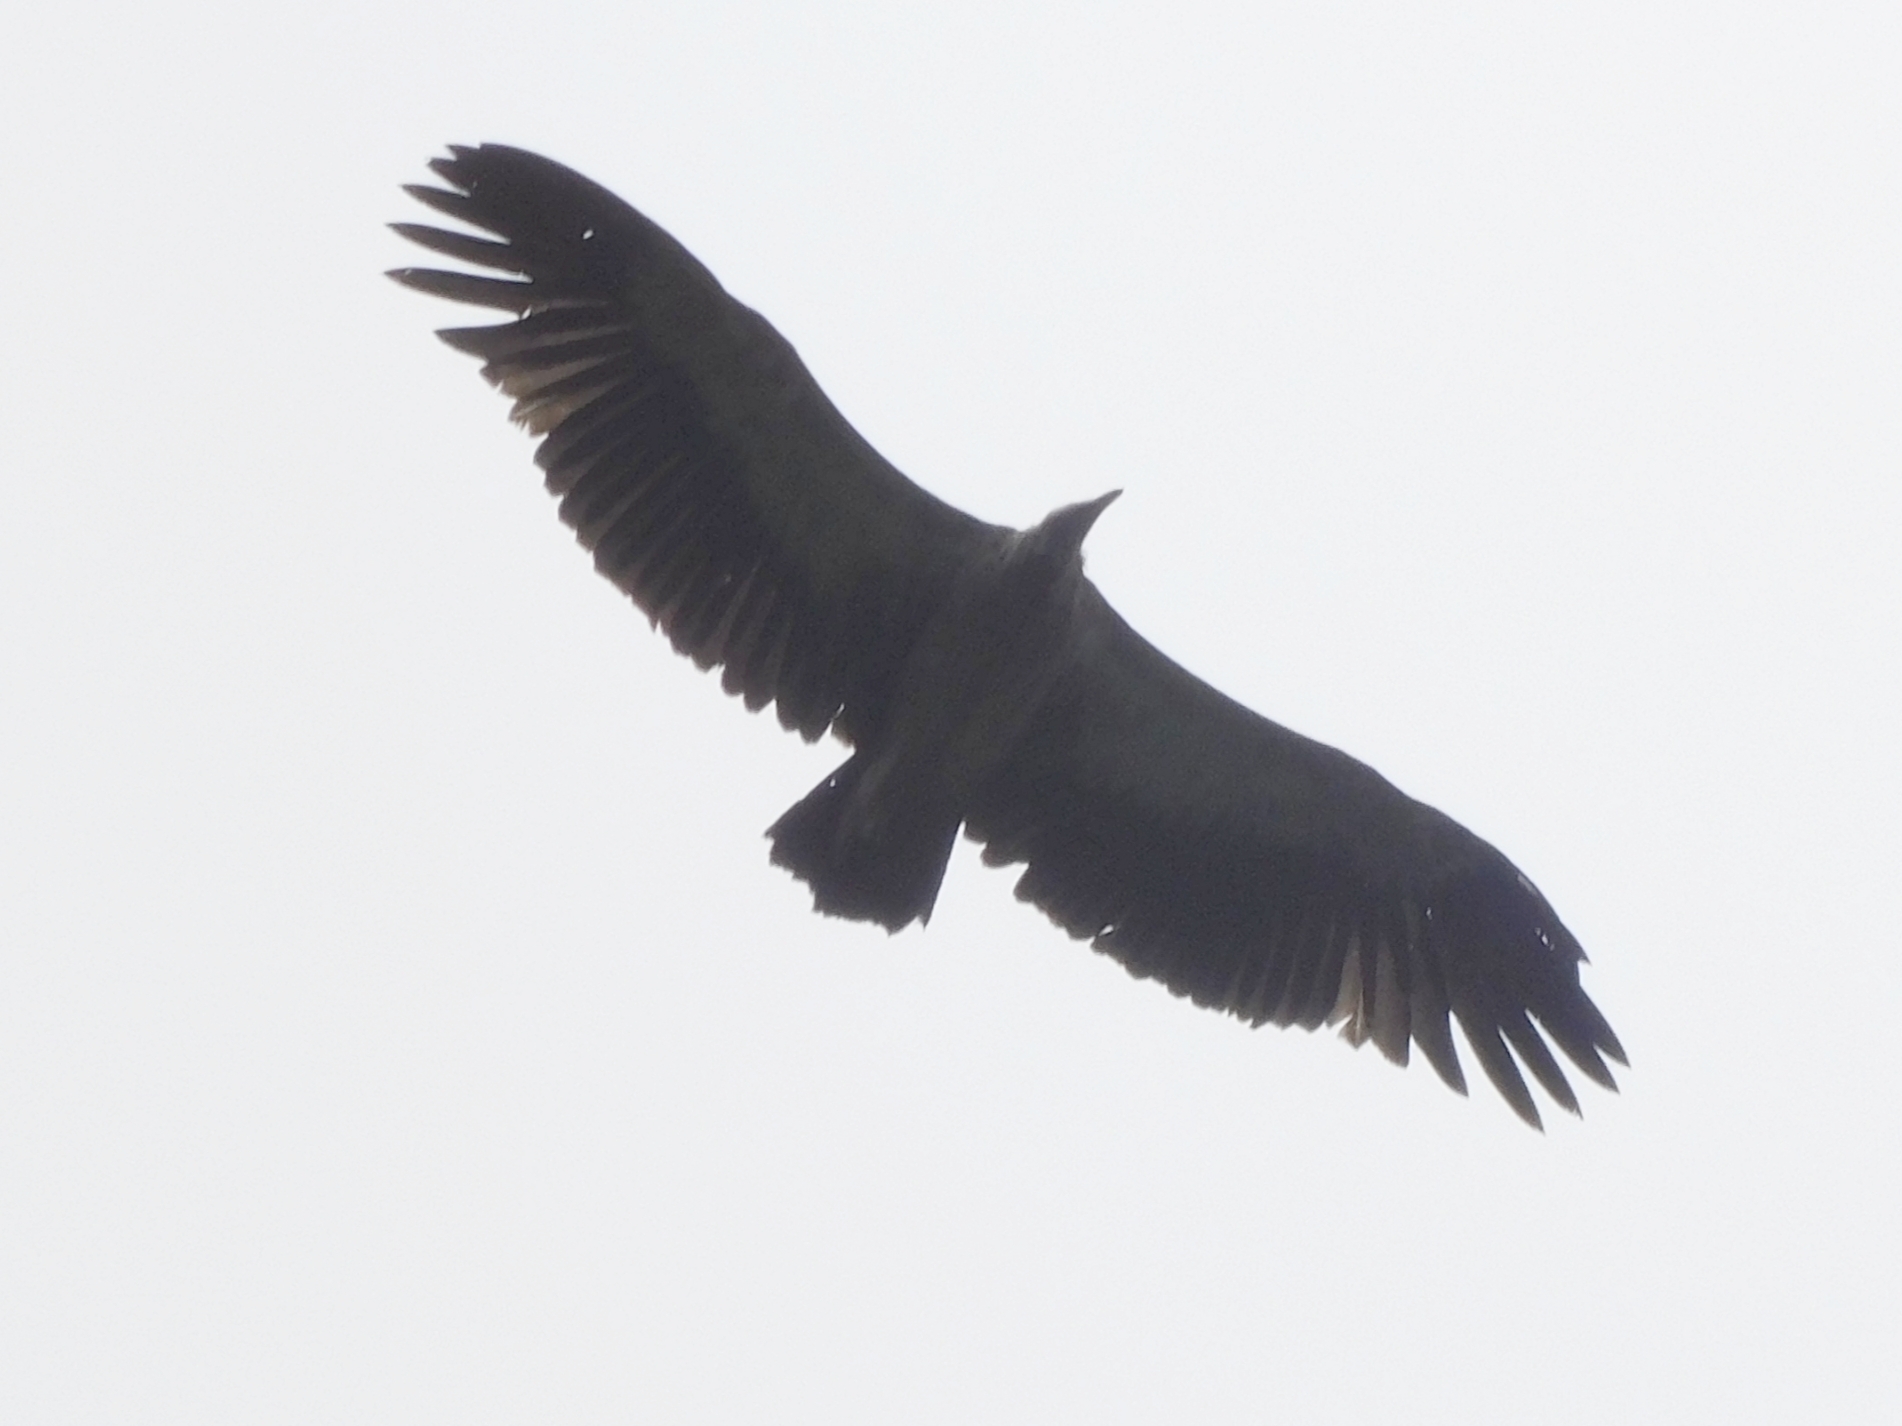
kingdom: Animalia
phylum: Chordata
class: Aves
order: Accipitriformes
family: Accipitridae
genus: Gyps
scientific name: Gyps himalayensis
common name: Himalayan griffon
